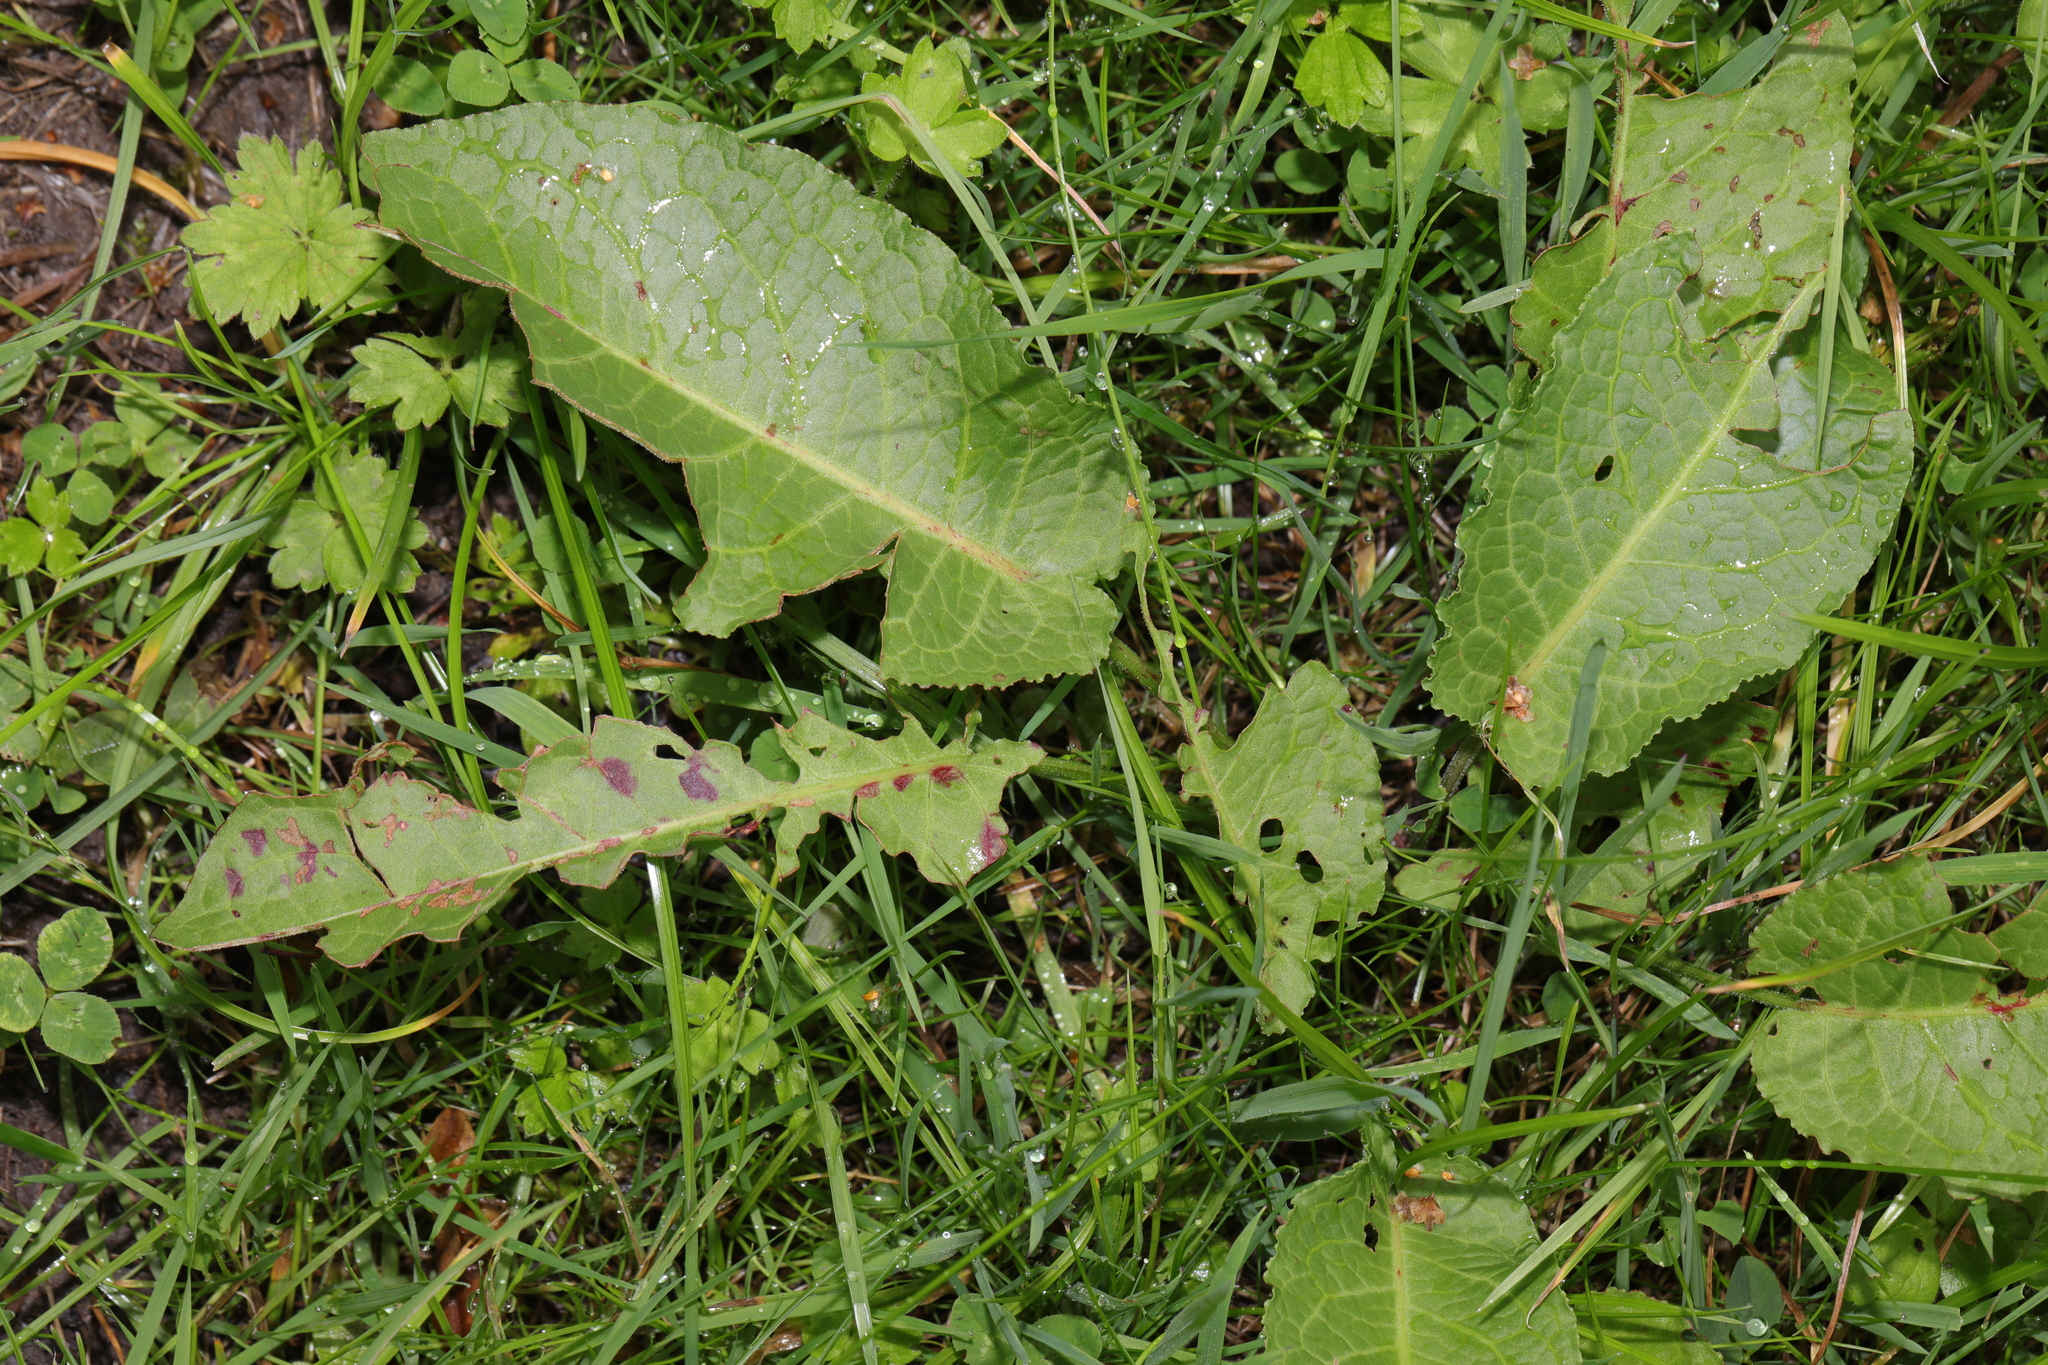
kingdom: Plantae
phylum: Tracheophyta
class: Magnoliopsida
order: Caryophyllales
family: Polygonaceae
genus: Rumex
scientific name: Rumex obtusifolius
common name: Bitter dock
